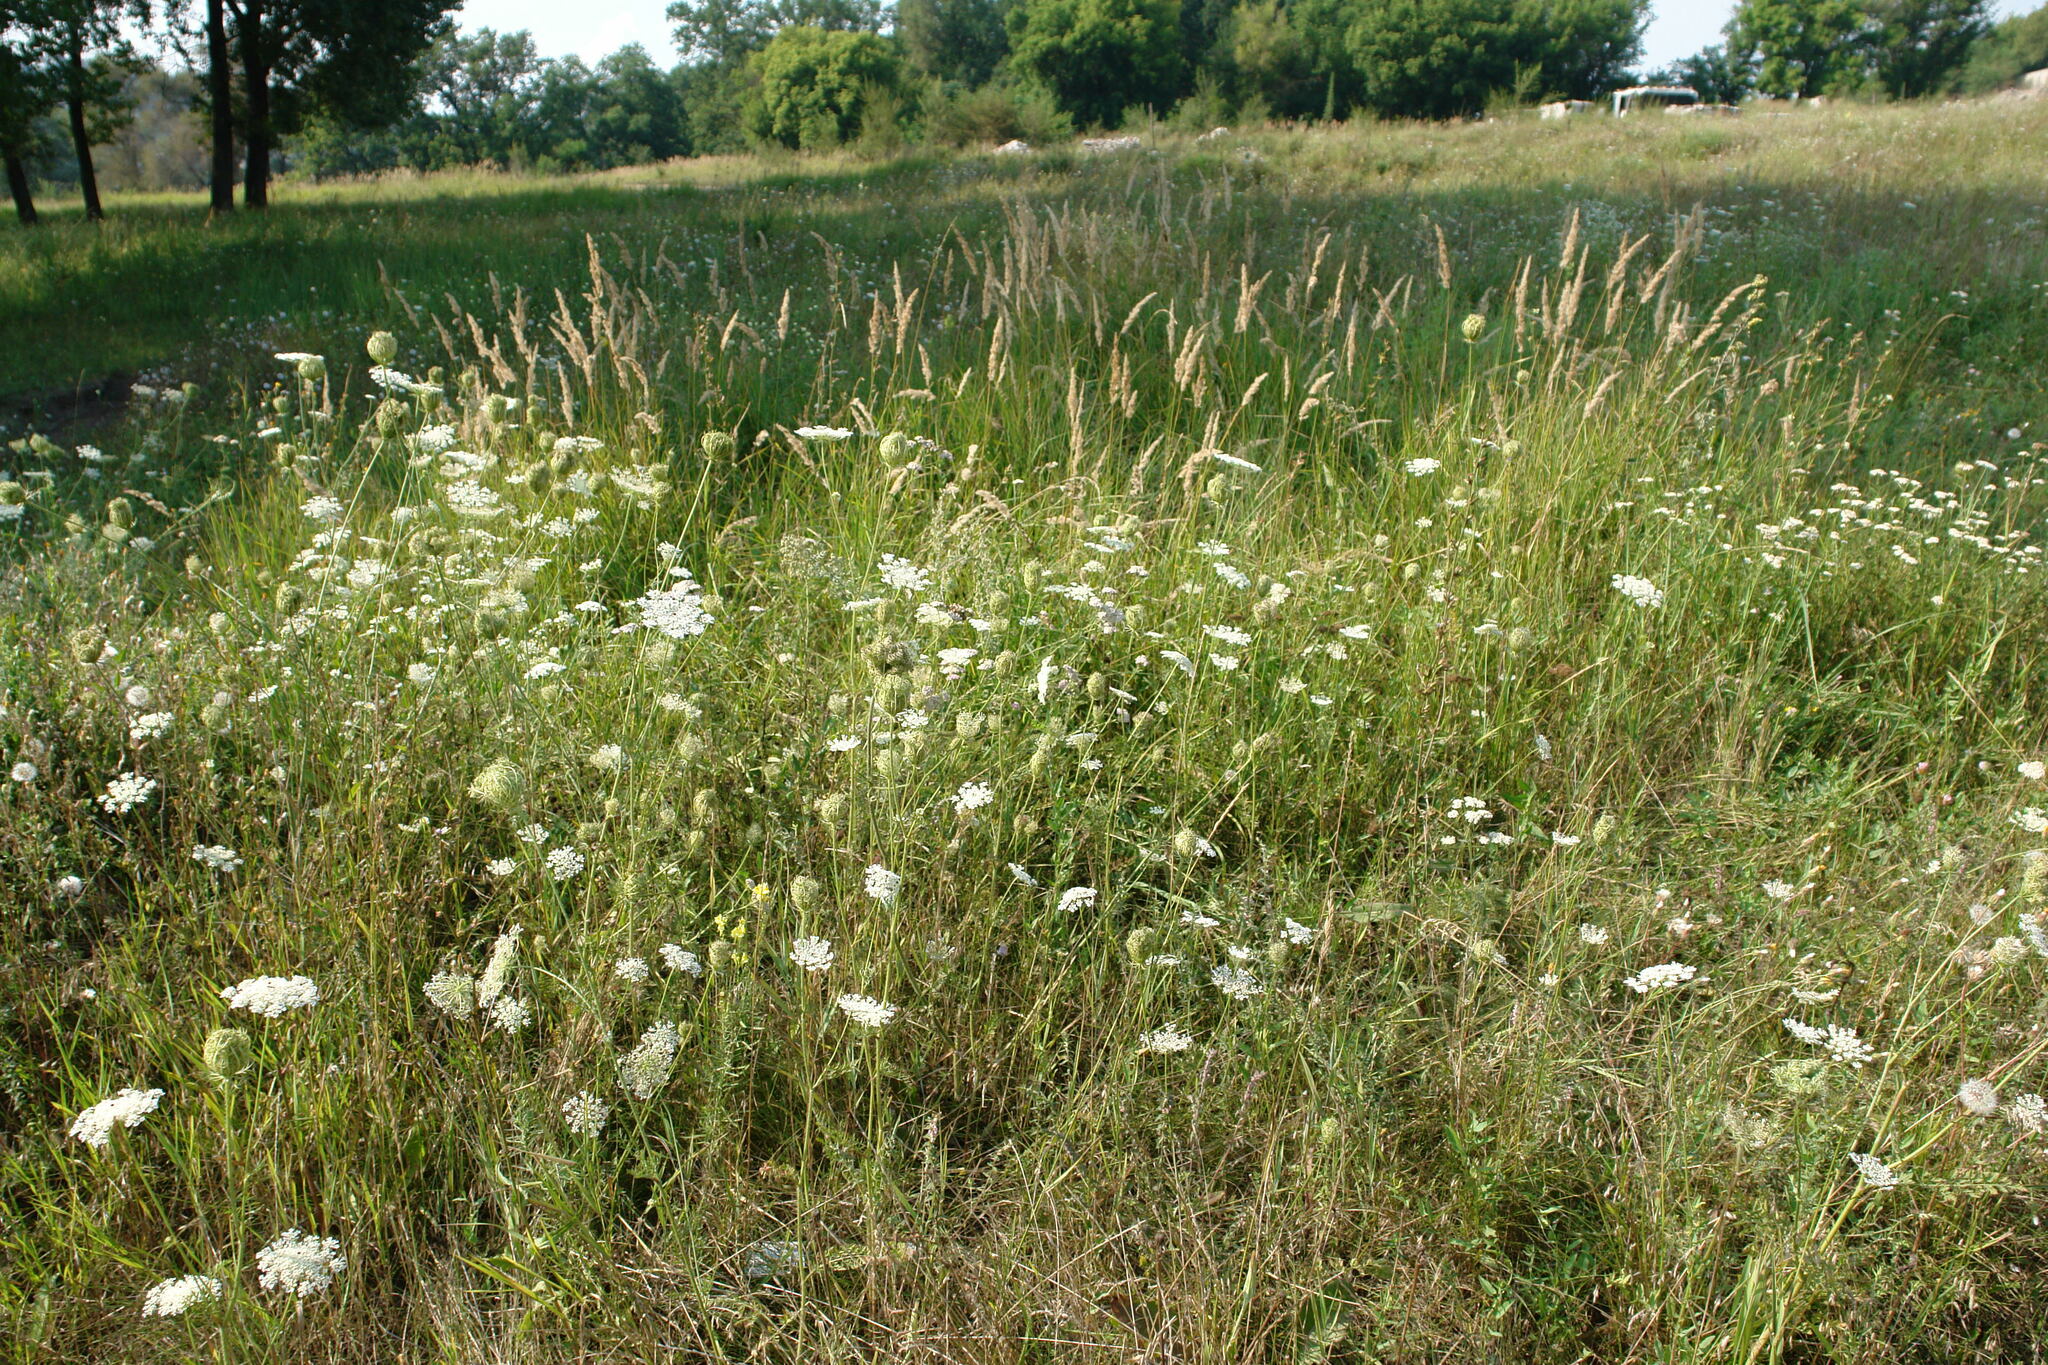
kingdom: Plantae
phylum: Tracheophyta
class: Magnoliopsida
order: Apiales
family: Apiaceae
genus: Daucus
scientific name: Daucus carota
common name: Wild carrot
